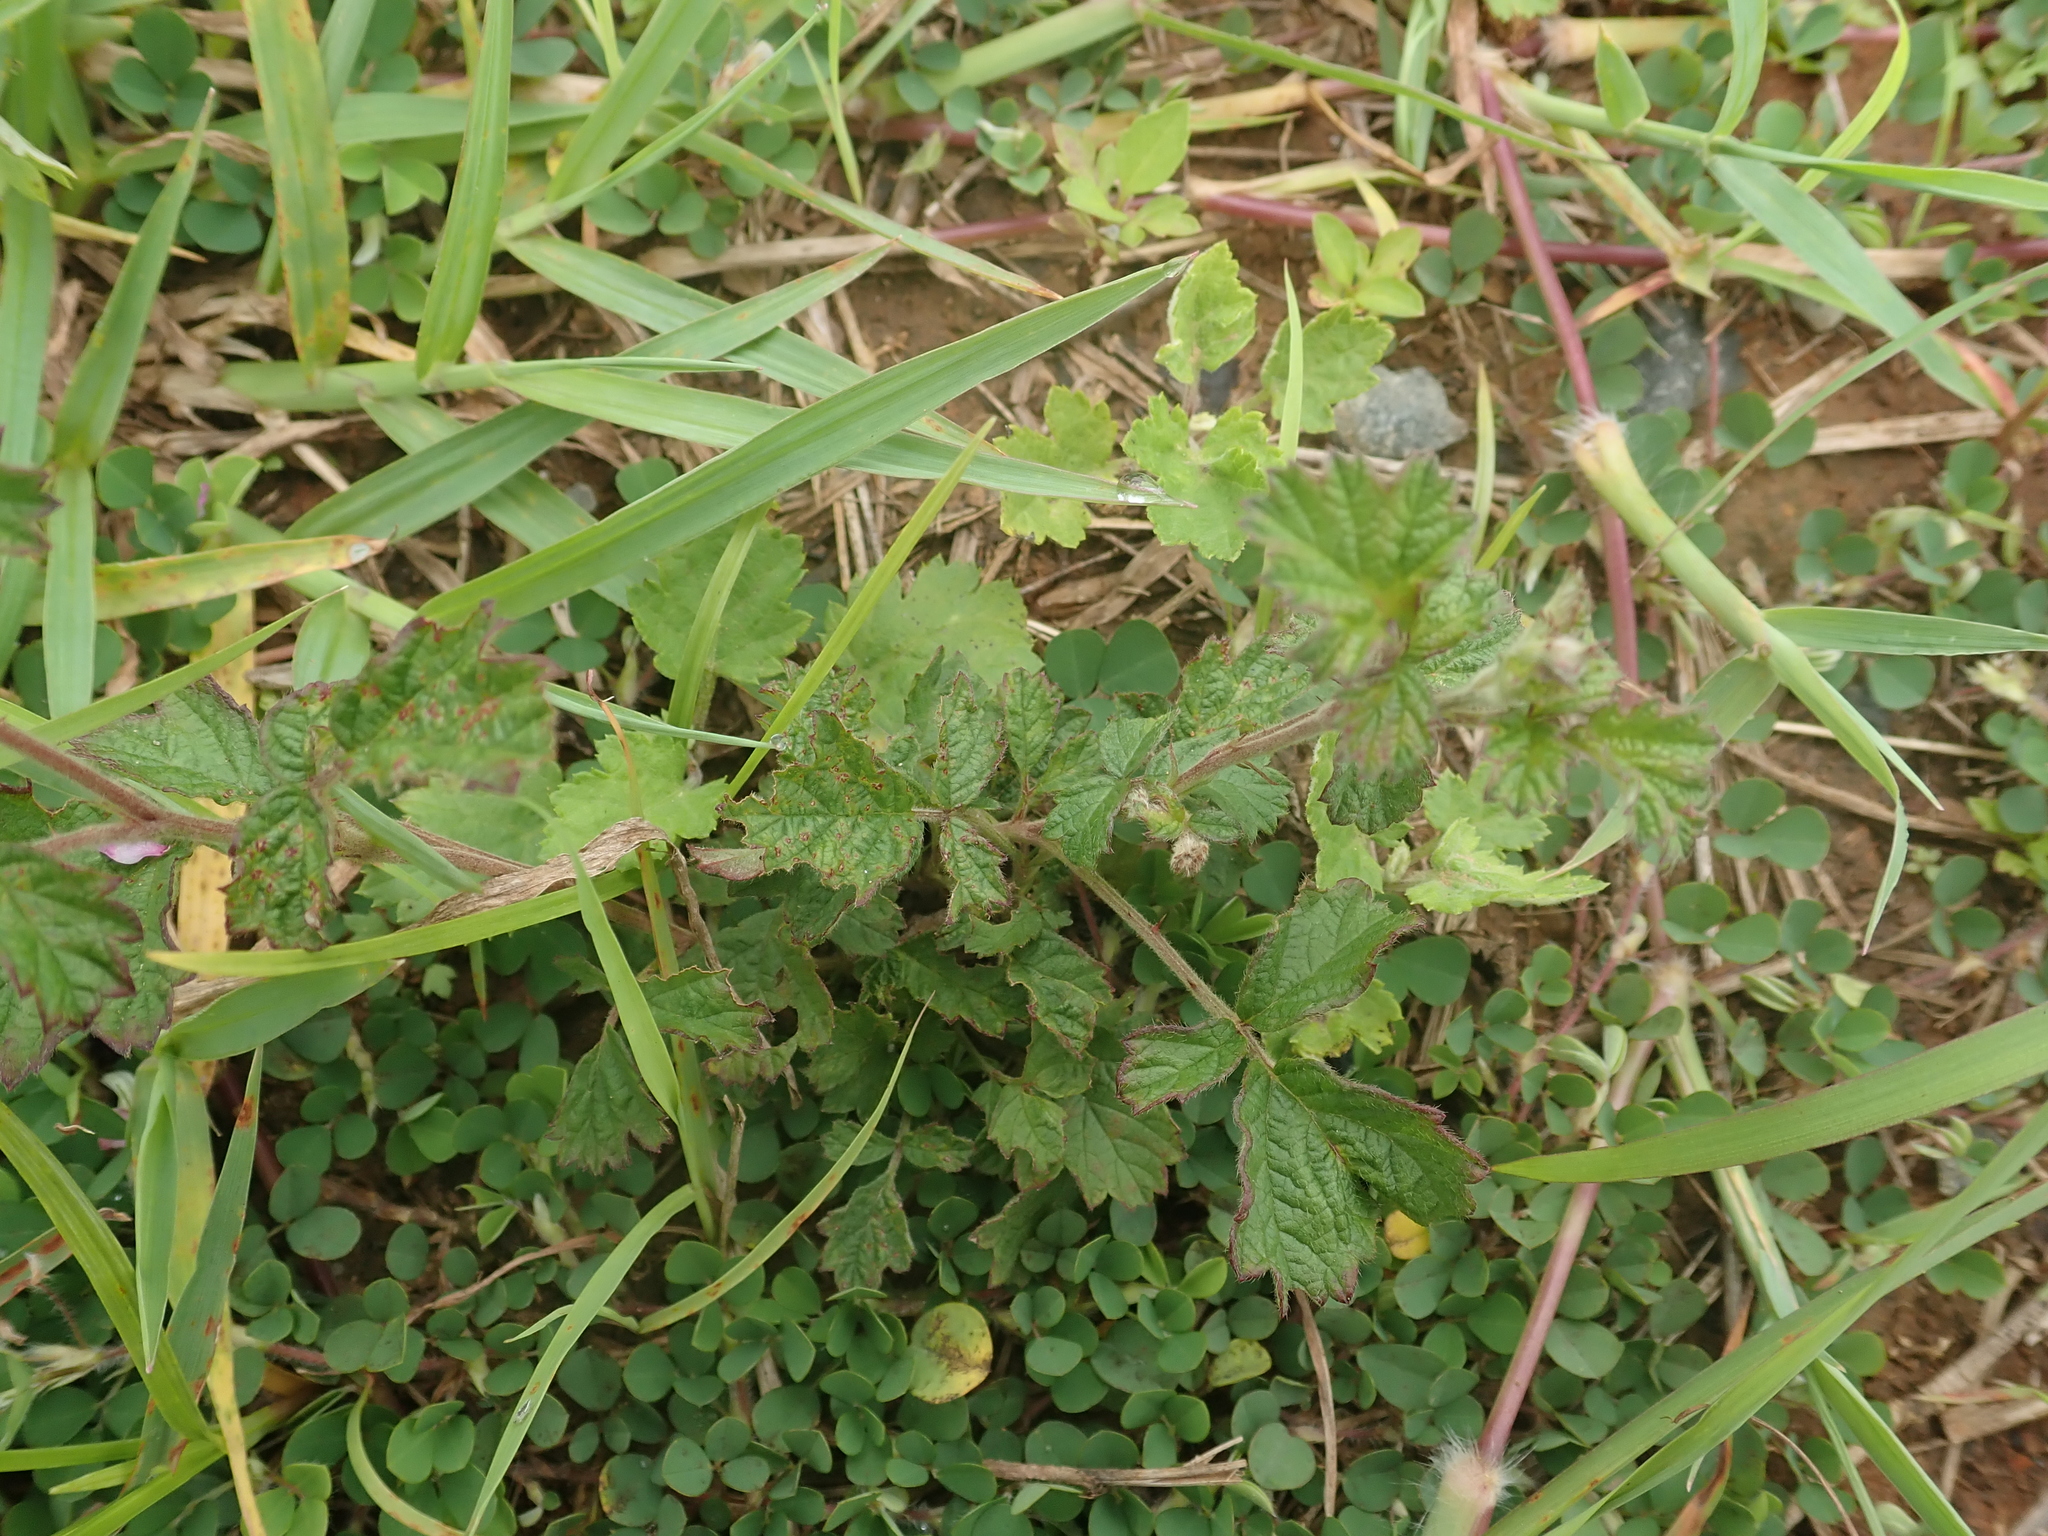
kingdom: Plantae
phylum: Tracheophyta
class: Magnoliopsida
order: Rosales
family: Rosaceae
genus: Rubus
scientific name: Rubus parvifolius
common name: Threeleaf blackberry
